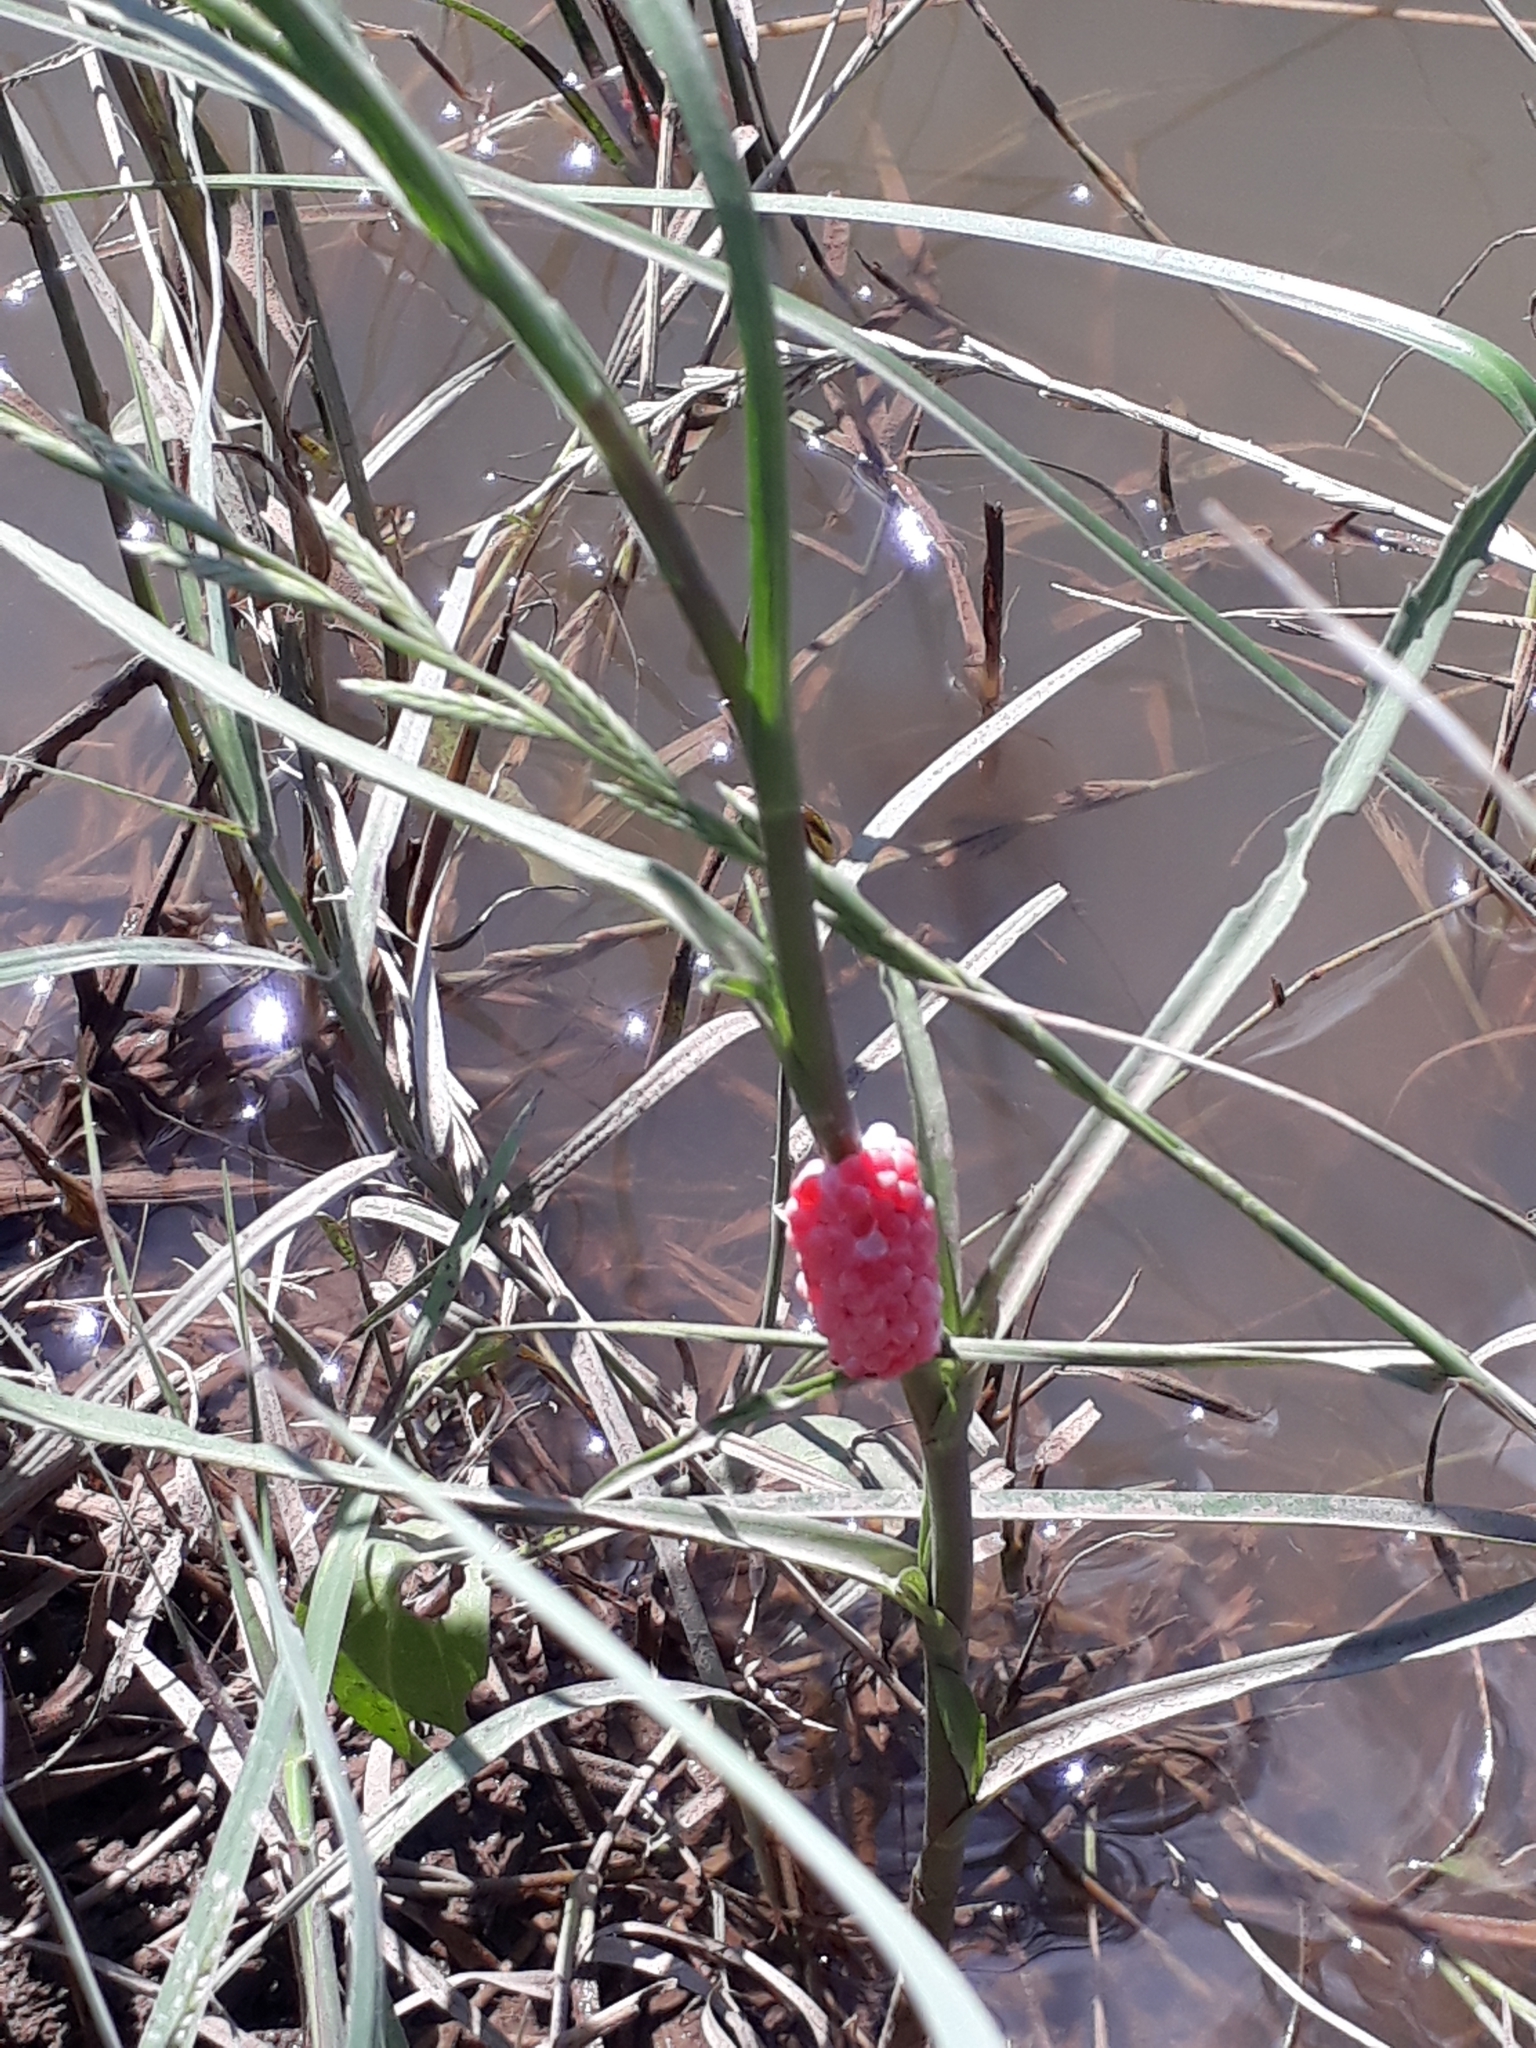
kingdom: Animalia
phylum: Mollusca
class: Gastropoda
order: Architaenioglossa
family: Ampullariidae
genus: Pomacea
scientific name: Pomacea maculata
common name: Giant applesnail
